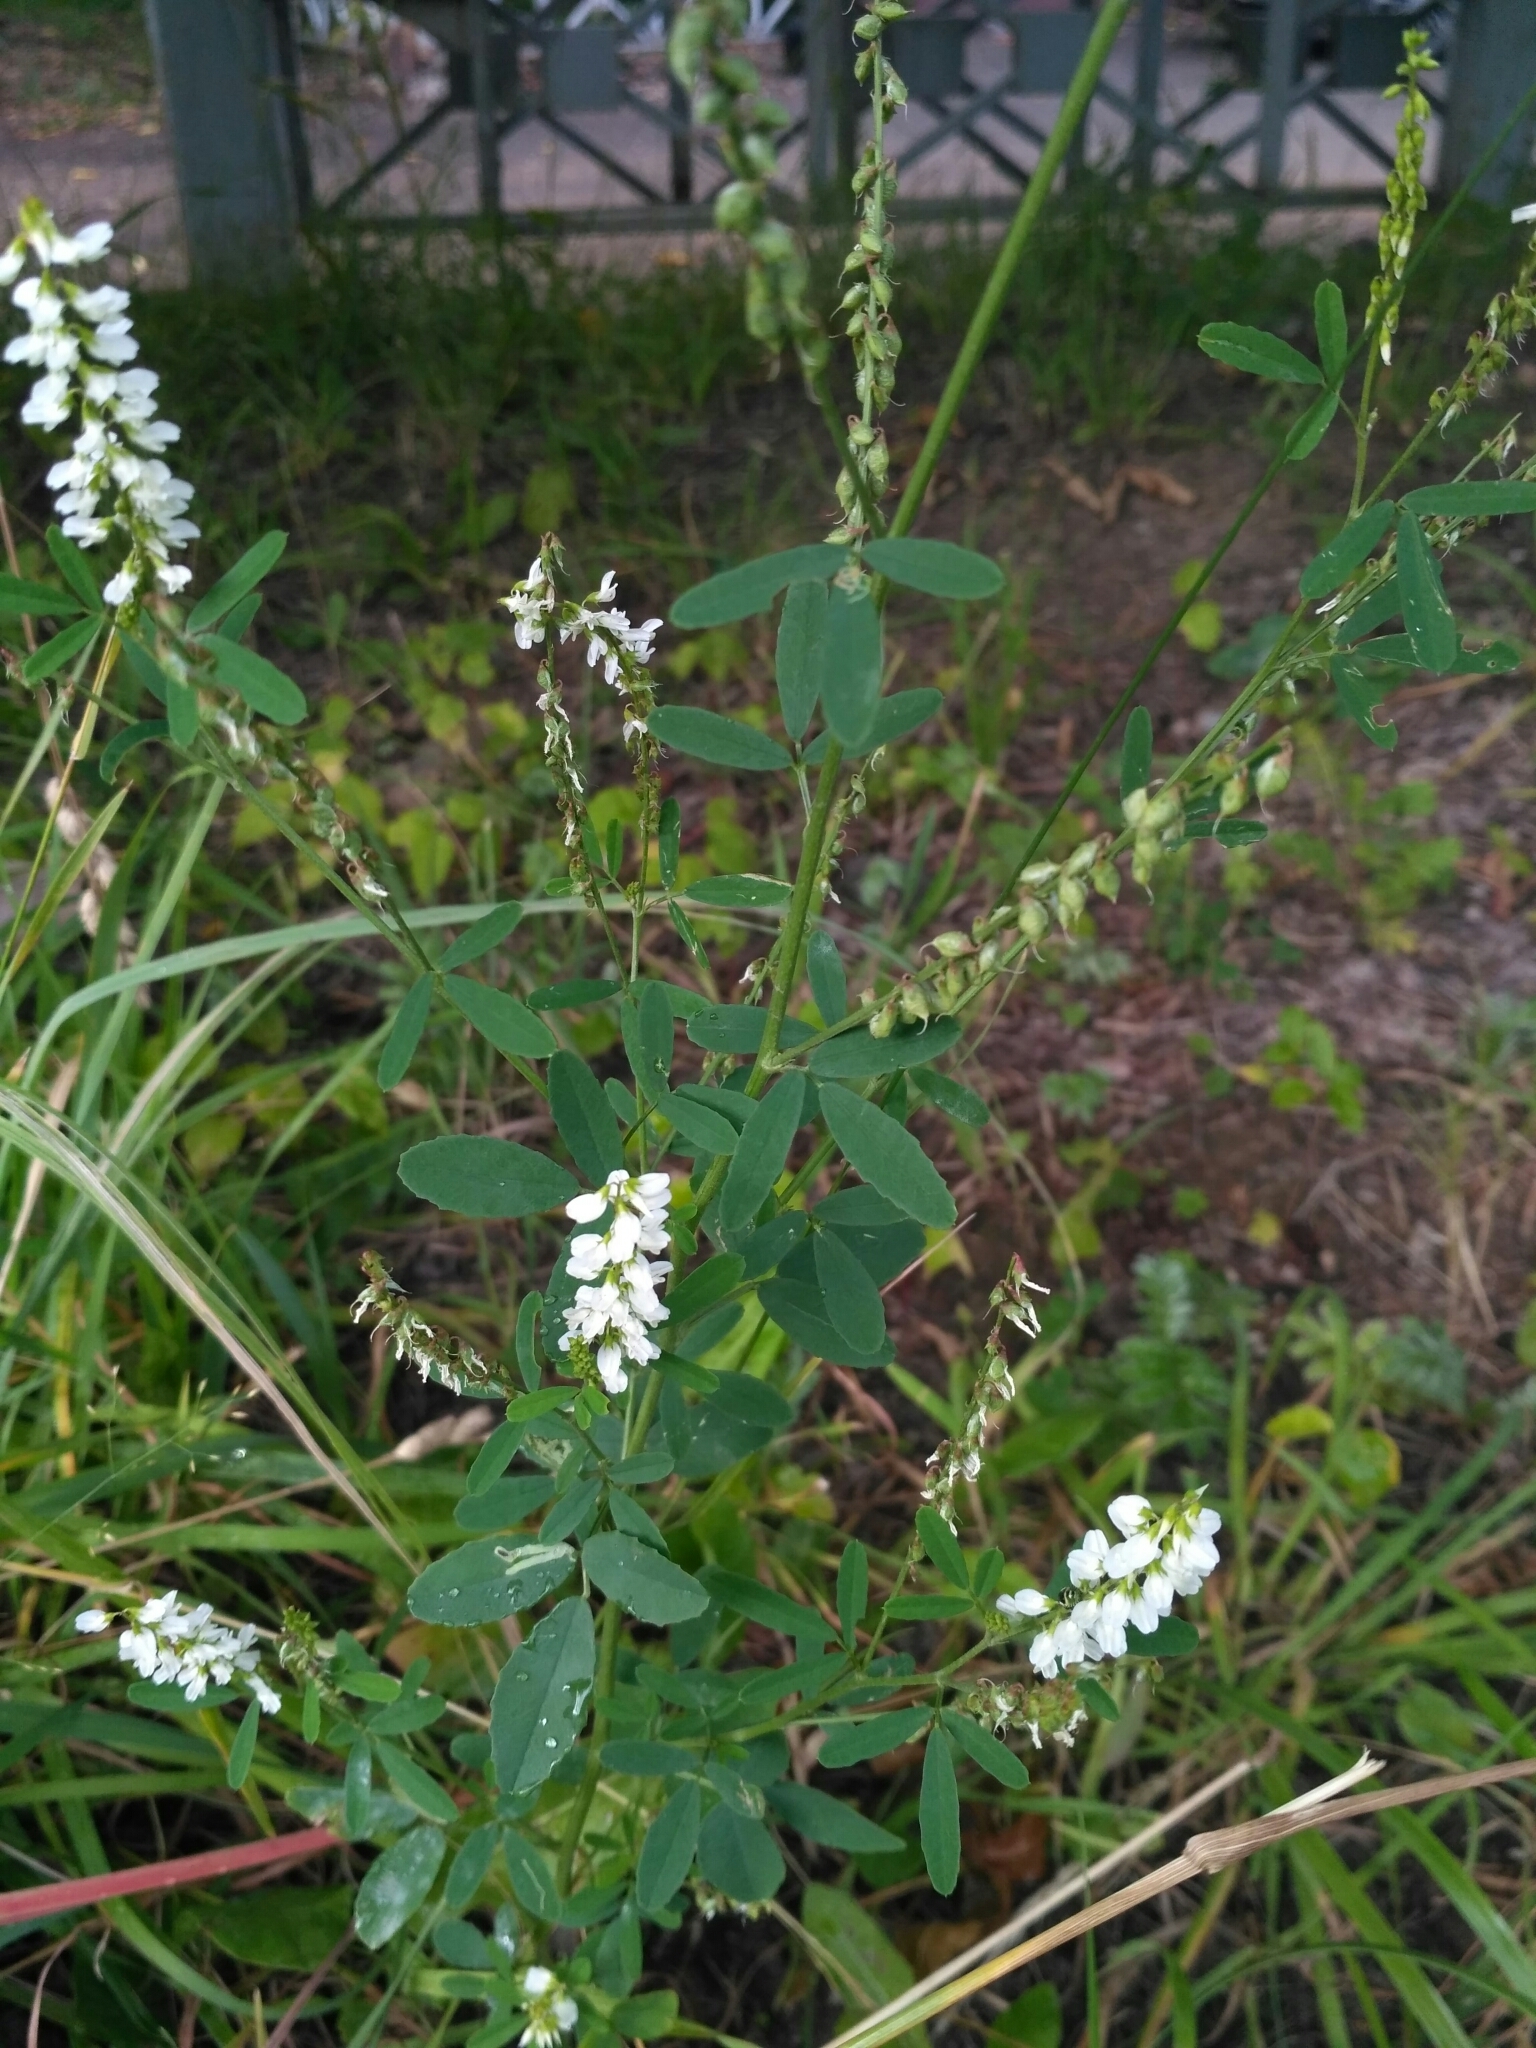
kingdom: Plantae
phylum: Tracheophyta
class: Magnoliopsida
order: Fabales
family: Fabaceae
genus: Melilotus
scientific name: Melilotus albus
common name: White melilot
